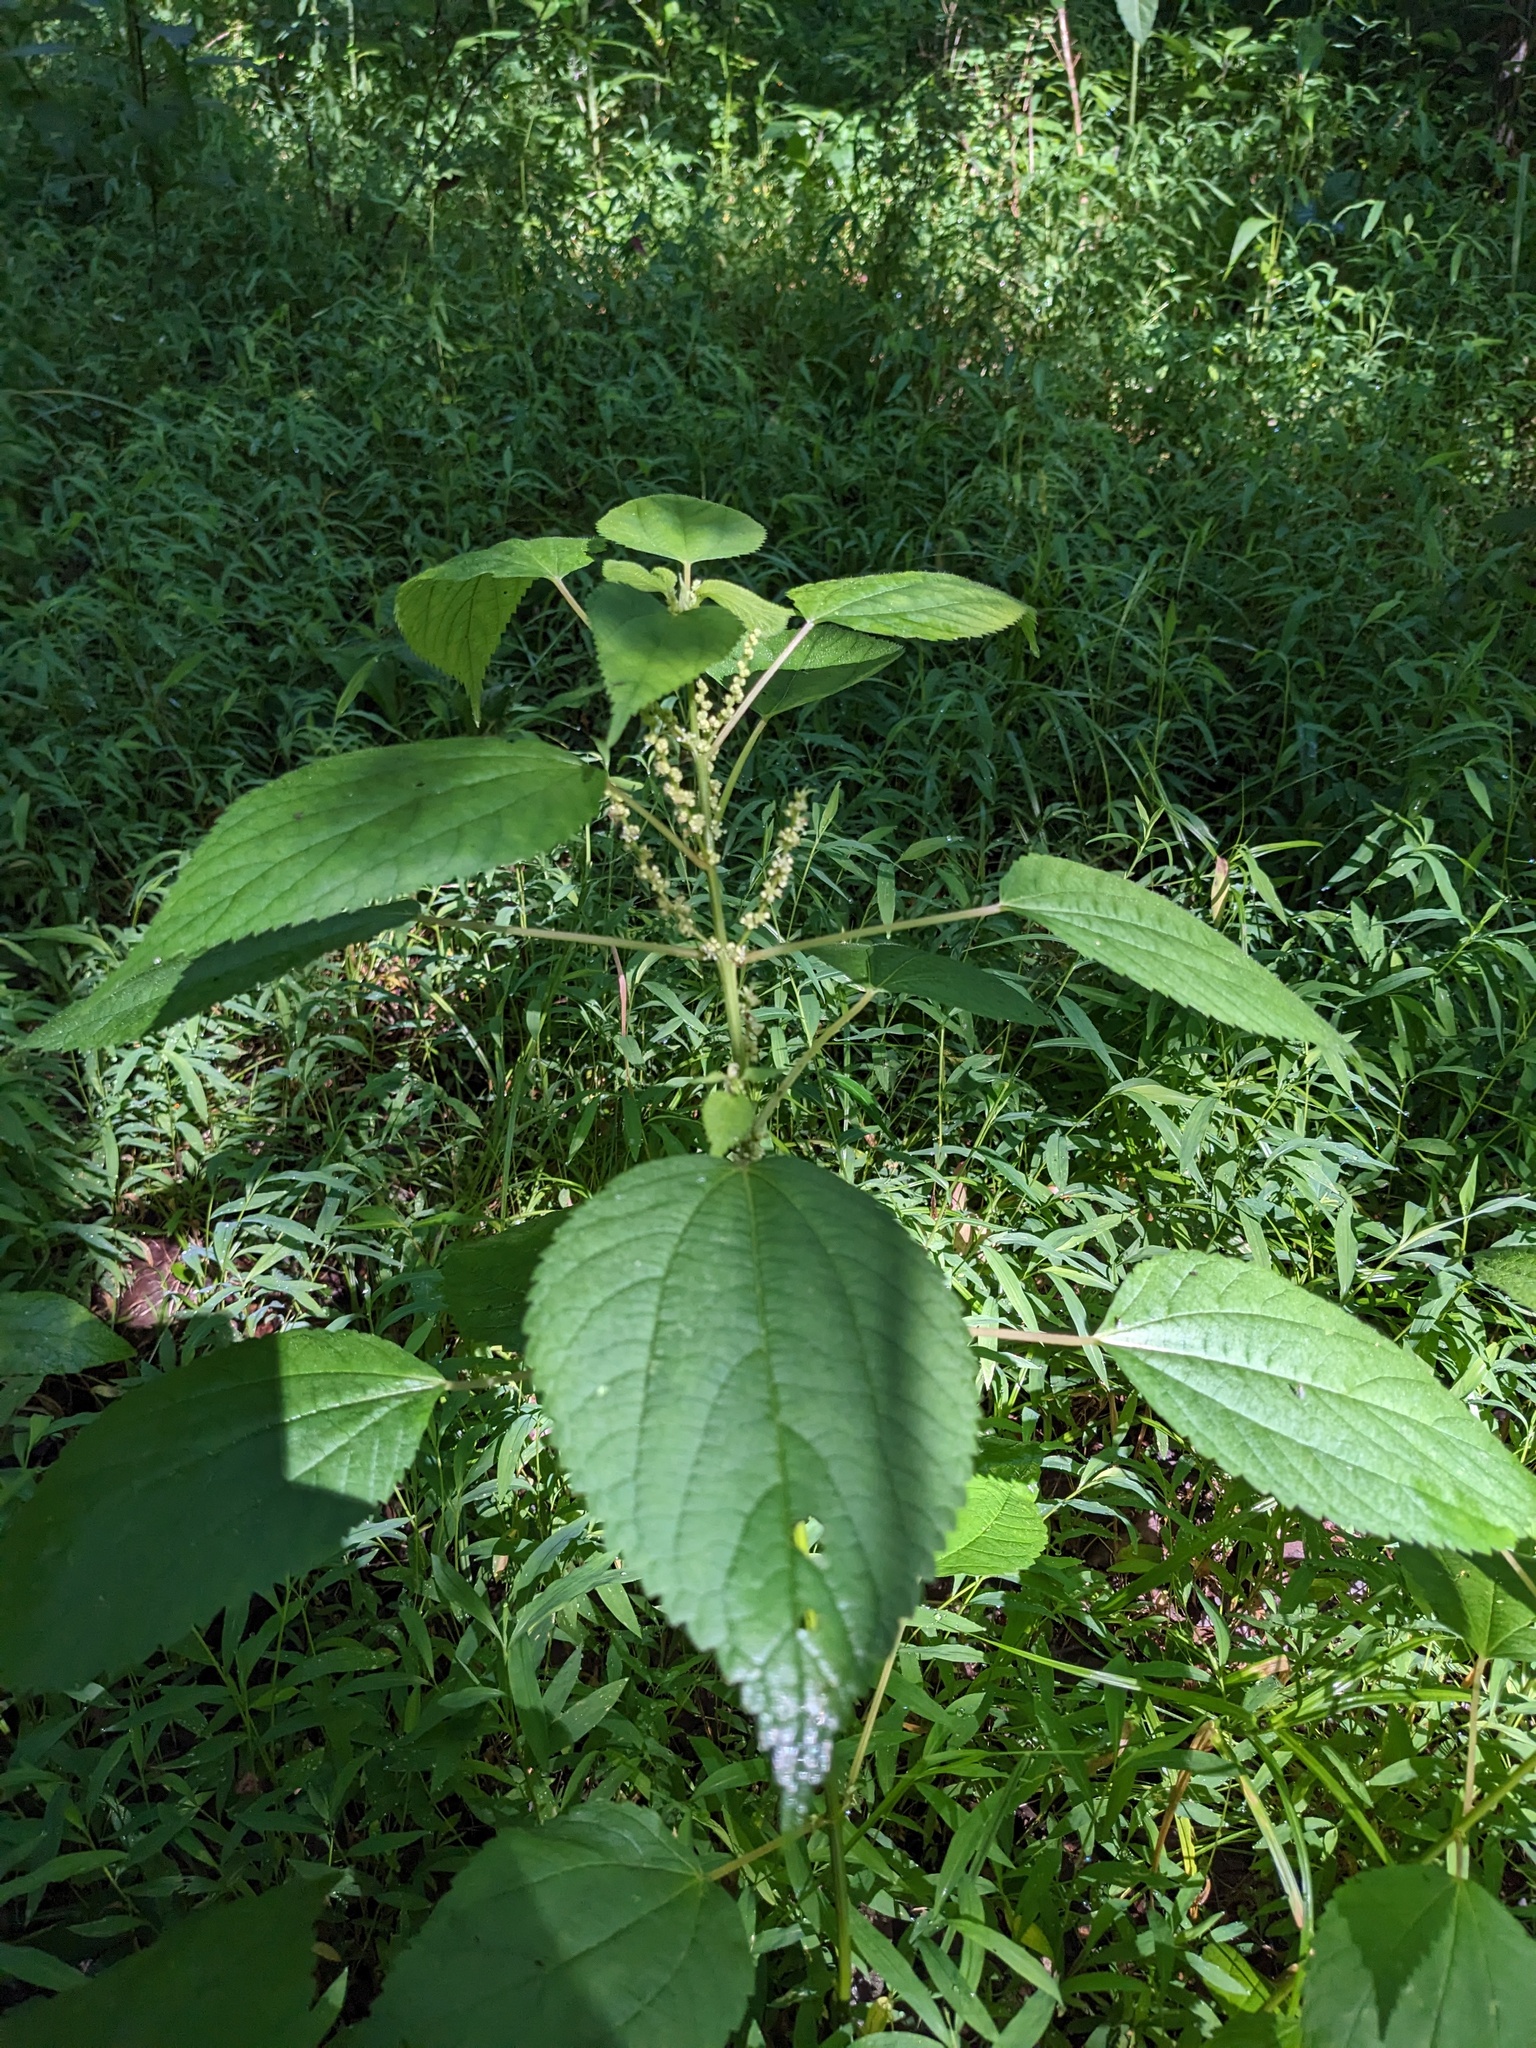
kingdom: Plantae
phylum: Tracheophyta
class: Magnoliopsida
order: Rosales
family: Urticaceae
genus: Boehmeria
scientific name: Boehmeria cylindrica
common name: Bog-hemp
